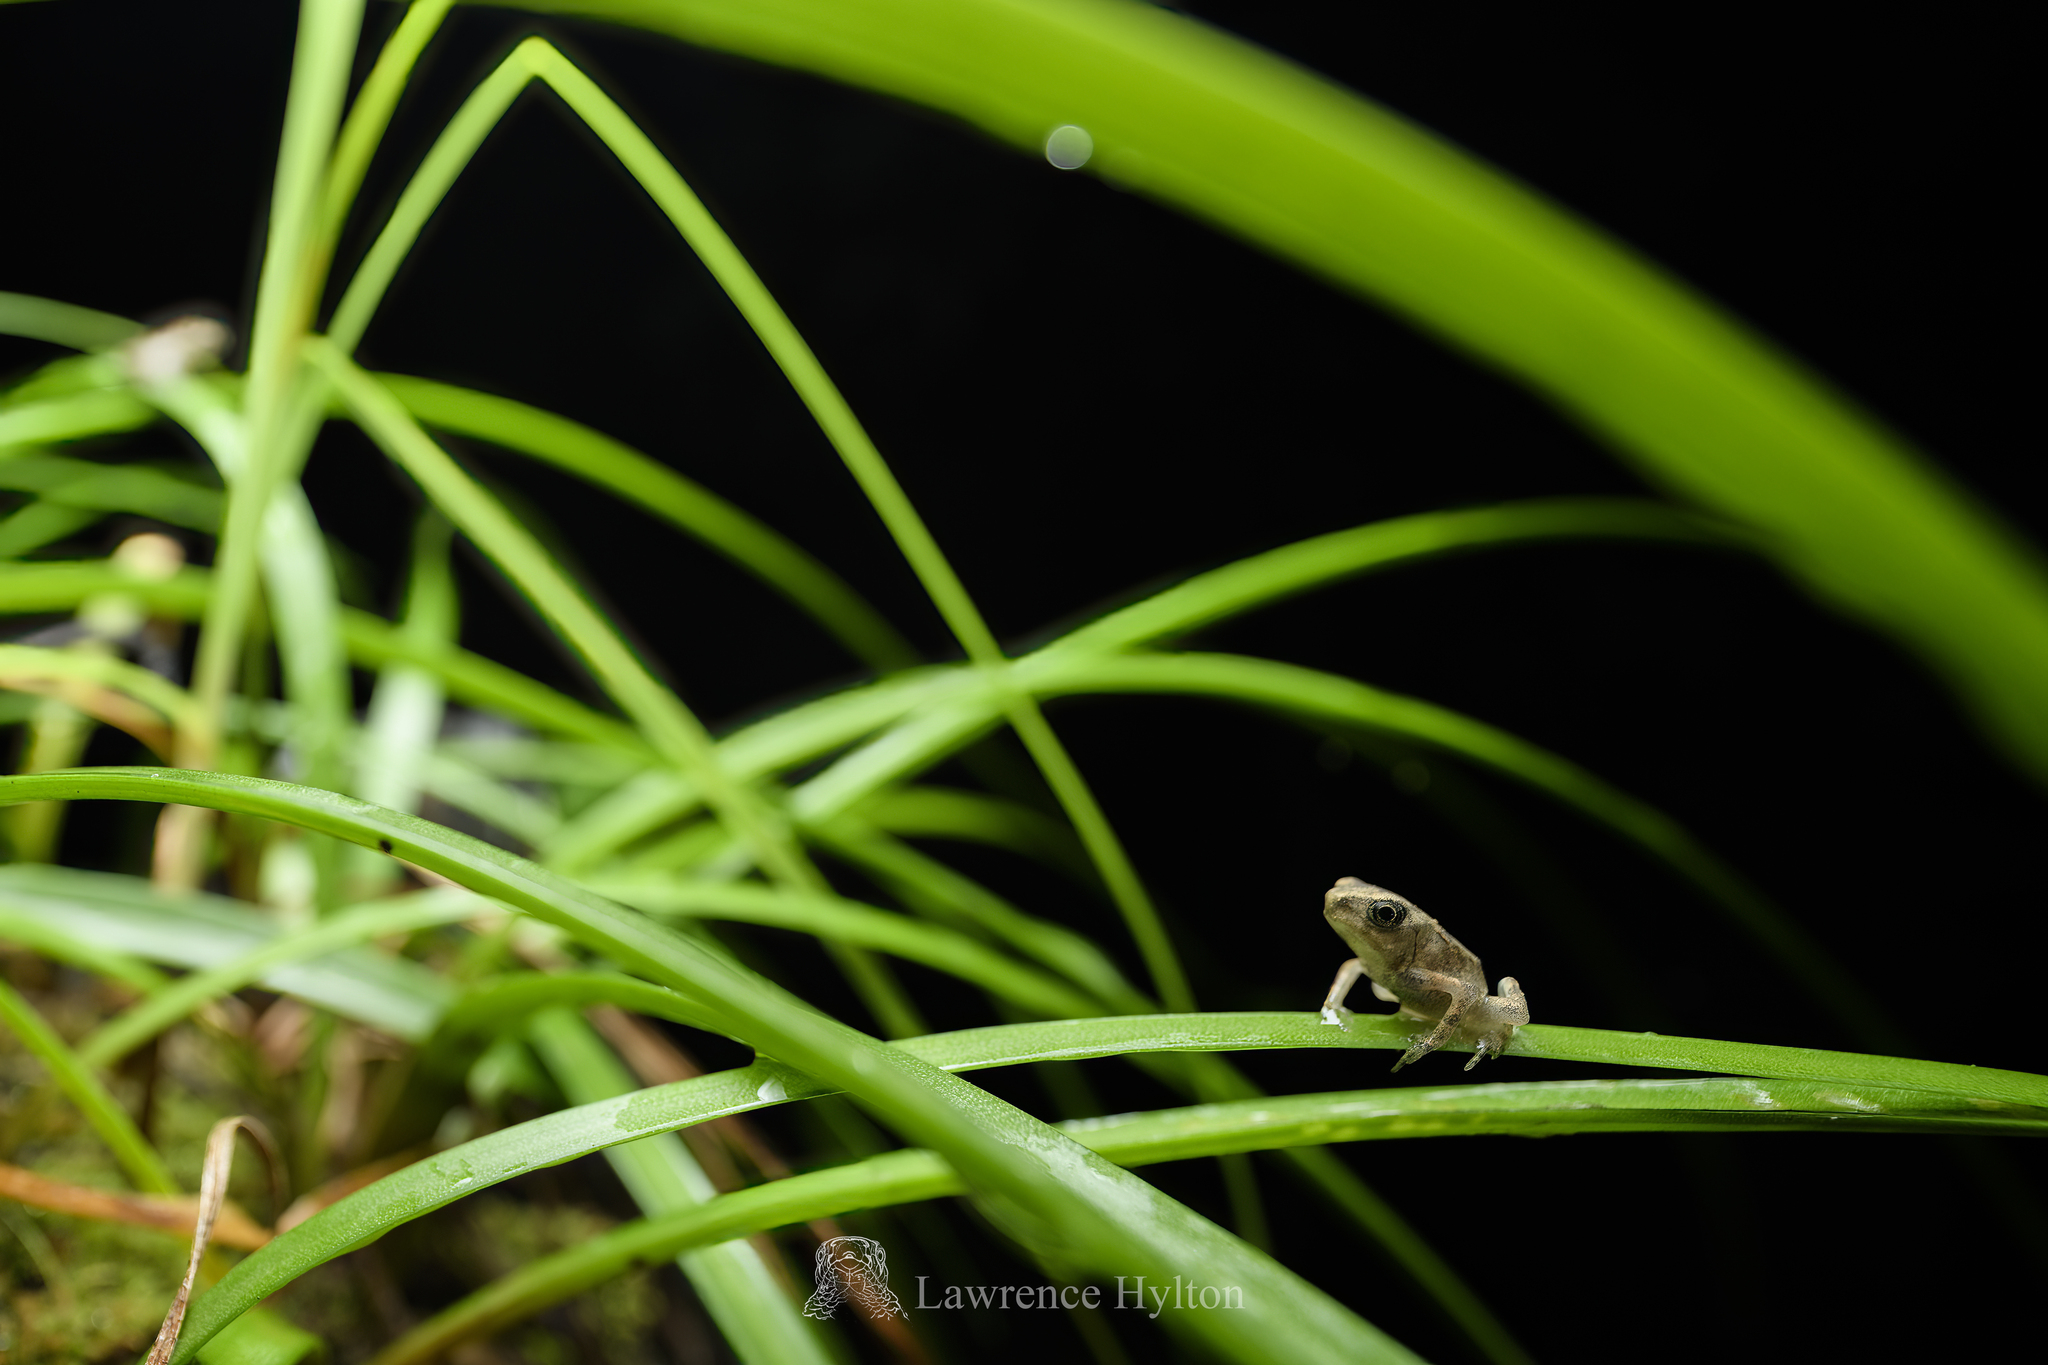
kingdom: Animalia
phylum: Chordata
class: Amphibia
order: Anura
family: Bufonidae
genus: Duttaphrynus
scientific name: Duttaphrynus melanostictus
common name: Common sunda toad
